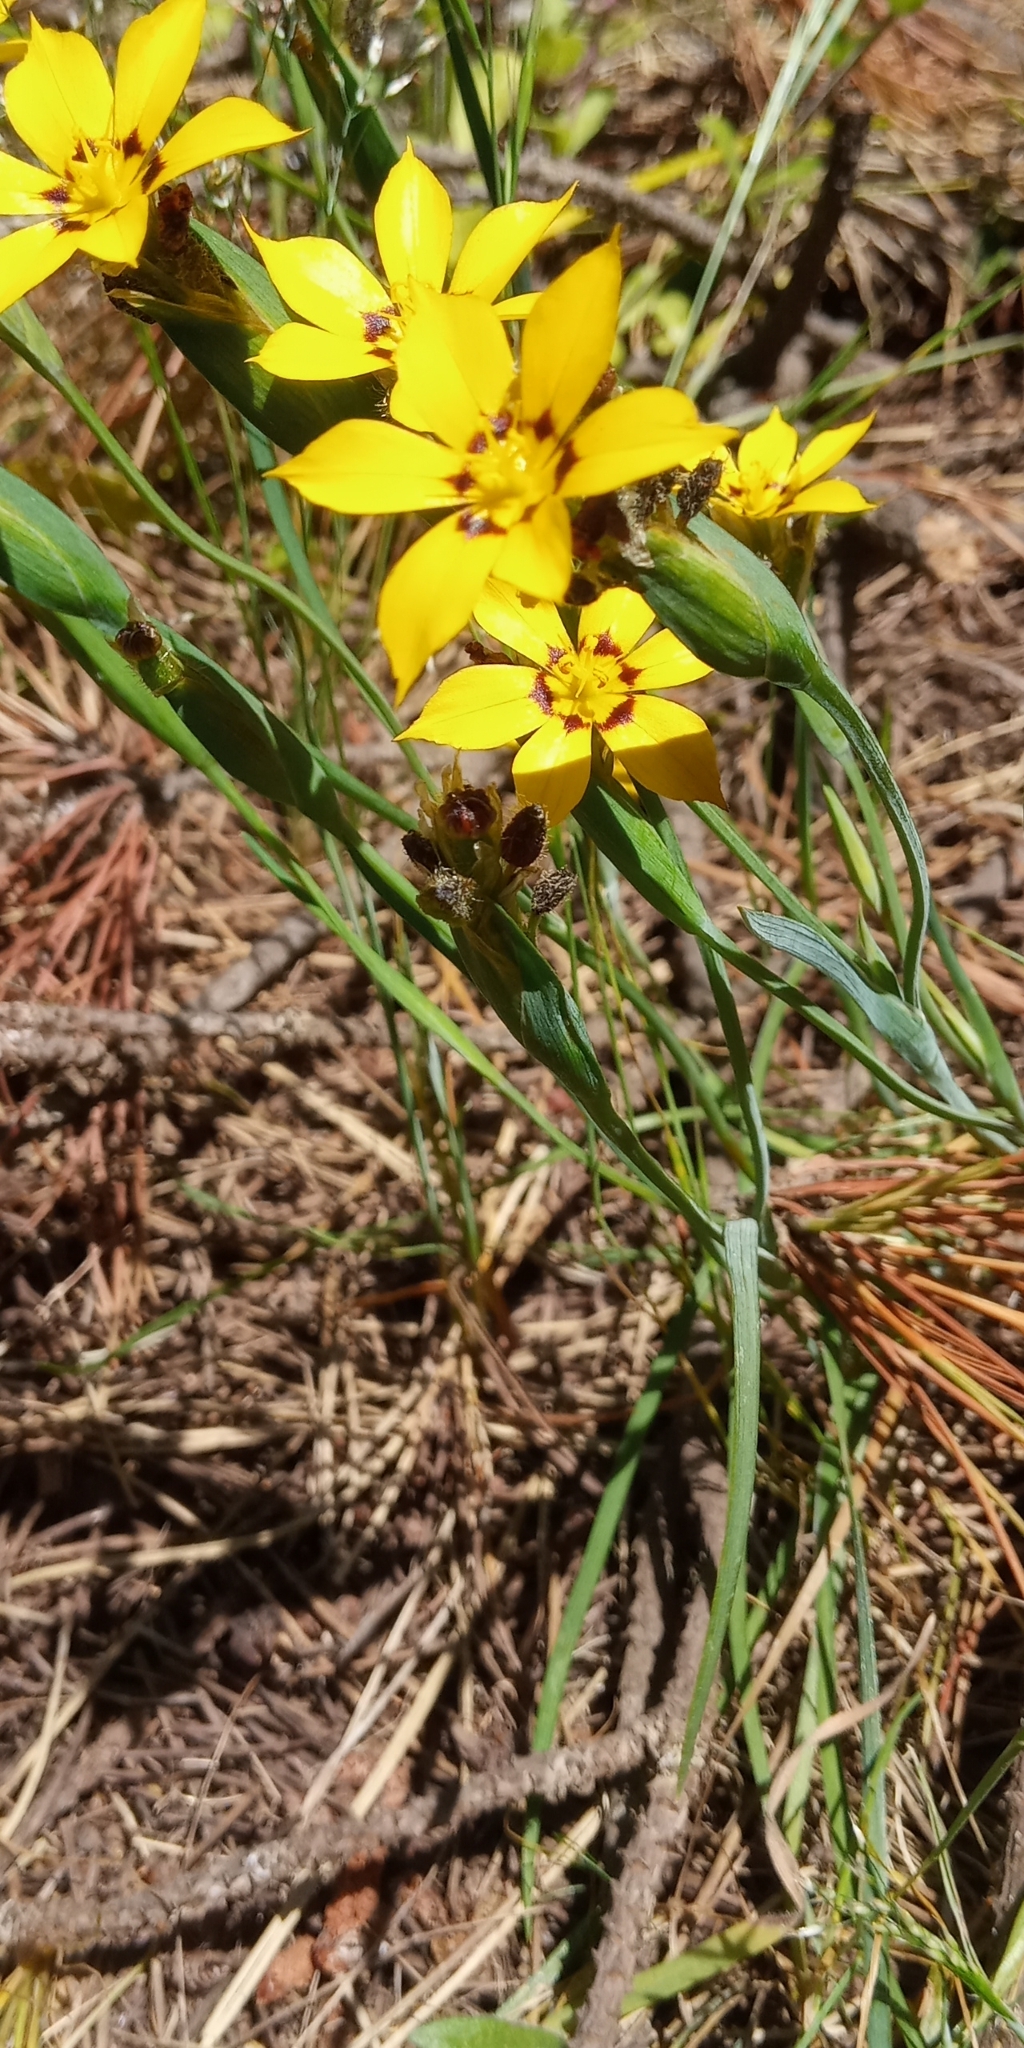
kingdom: Plantae
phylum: Tracheophyta
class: Liliopsida
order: Asparagales
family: Iridaceae
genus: Sisyrinchium
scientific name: Sisyrinchium graminifolium
